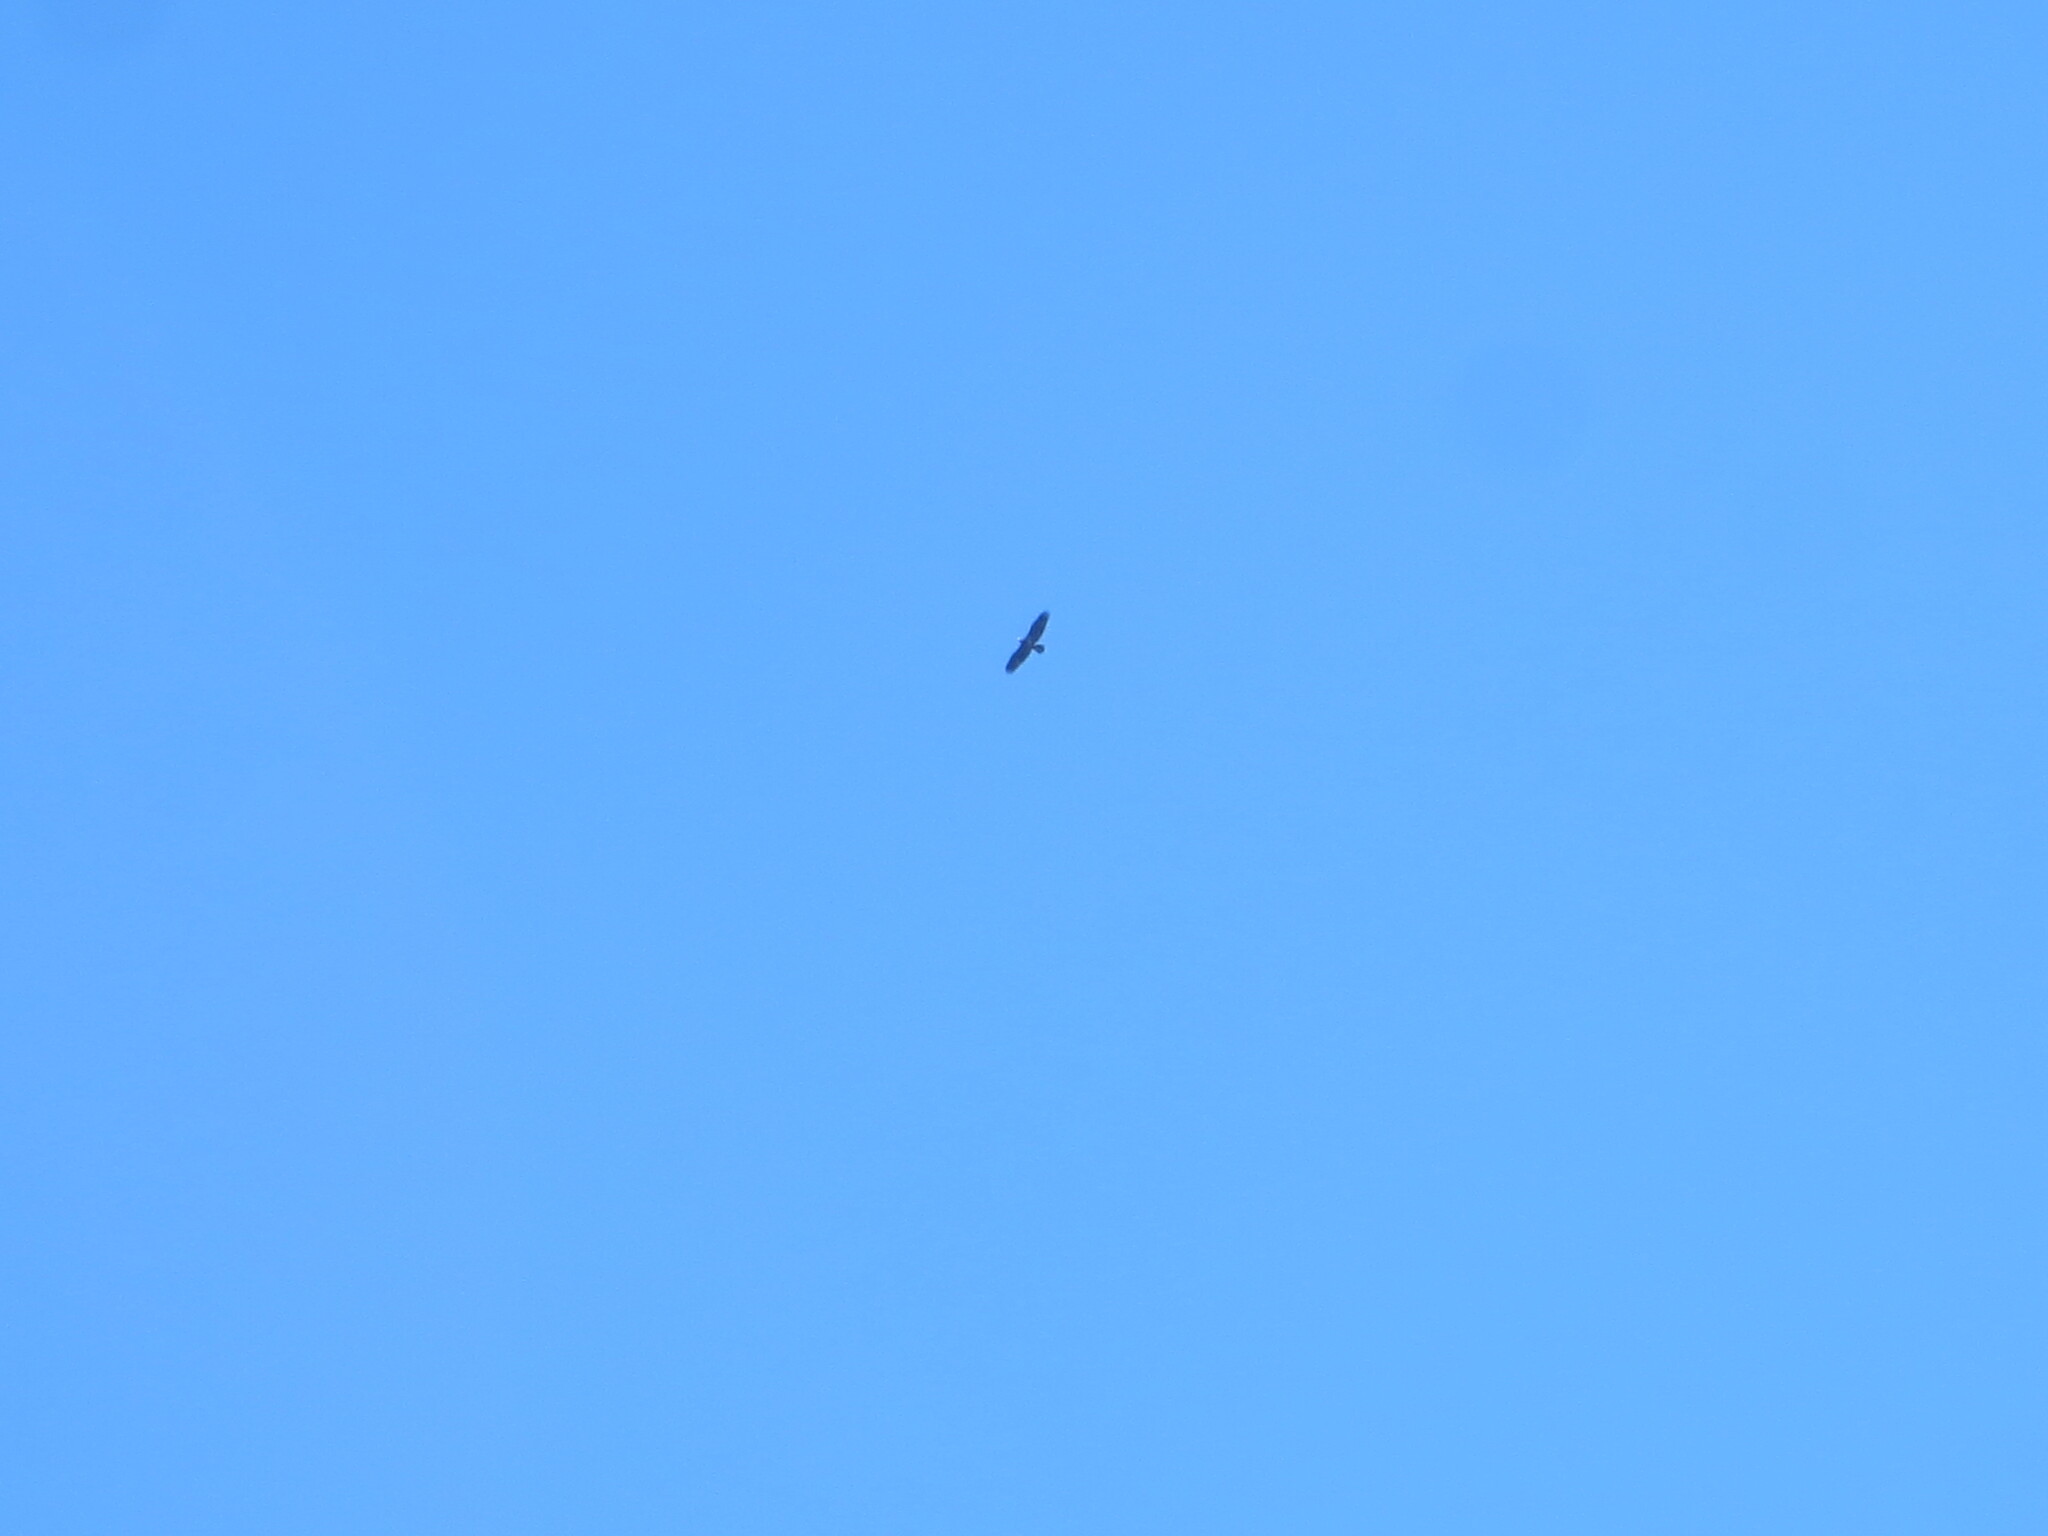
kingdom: Animalia
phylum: Chordata
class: Aves
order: Accipitriformes
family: Accipitridae
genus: Haliaeetus
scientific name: Haliaeetus leucocephalus
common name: Bald eagle
